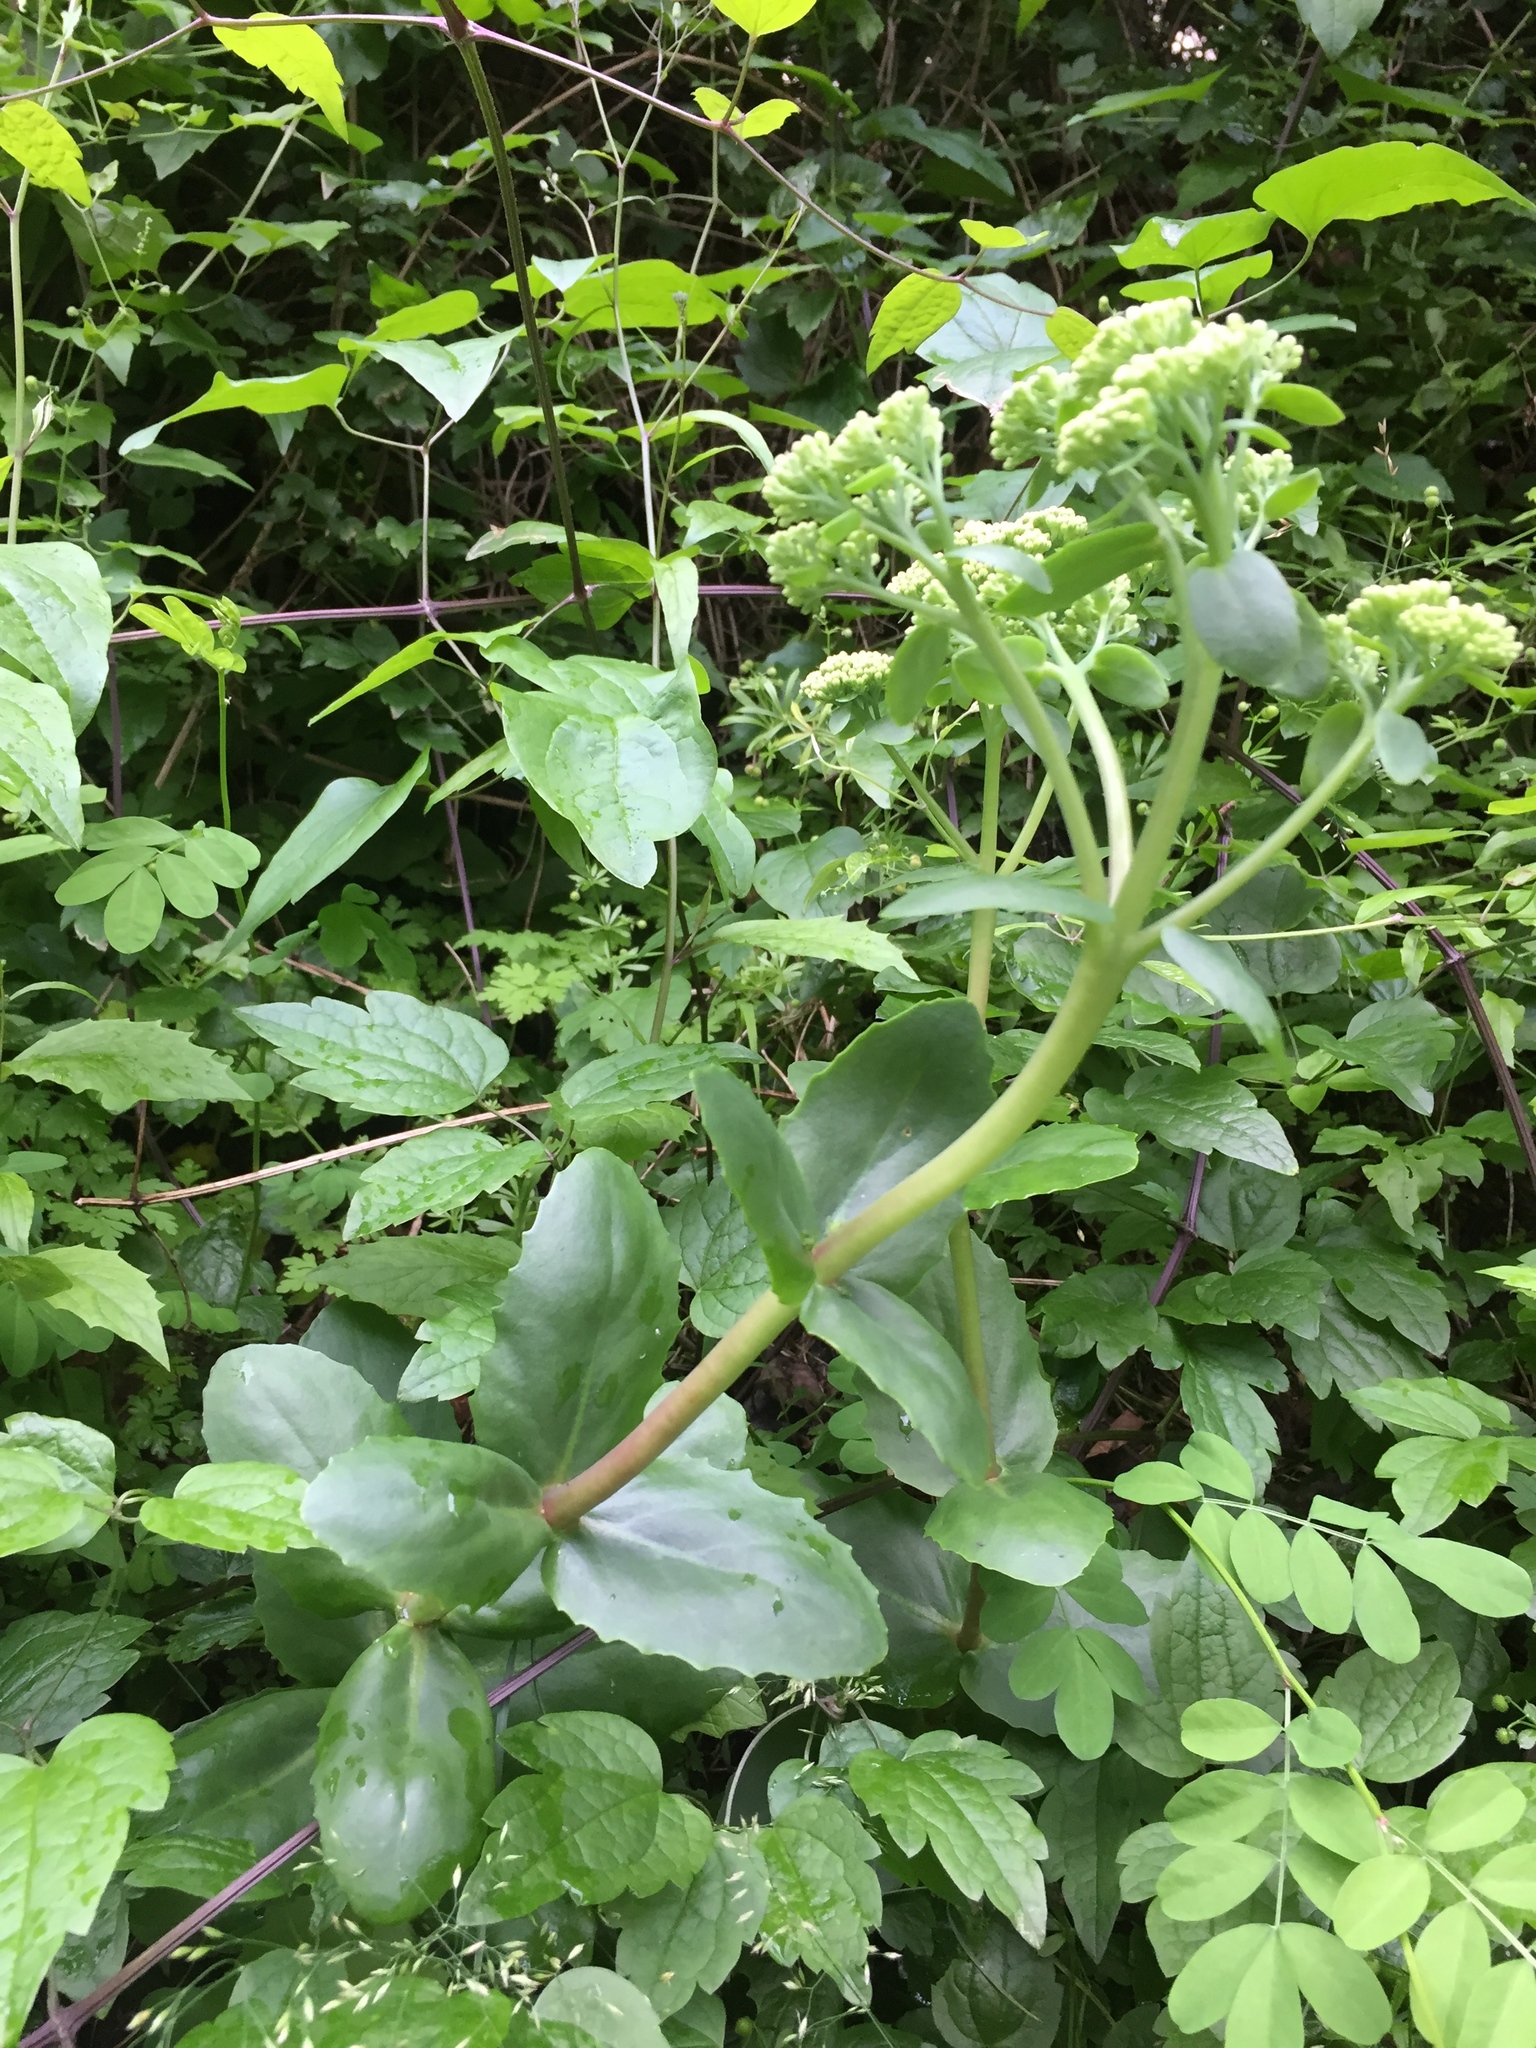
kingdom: Plantae
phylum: Tracheophyta
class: Magnoliopsida
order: Saxifragales
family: Crassulaceae
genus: Hylotelephium
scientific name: Hylotelephium maximum
